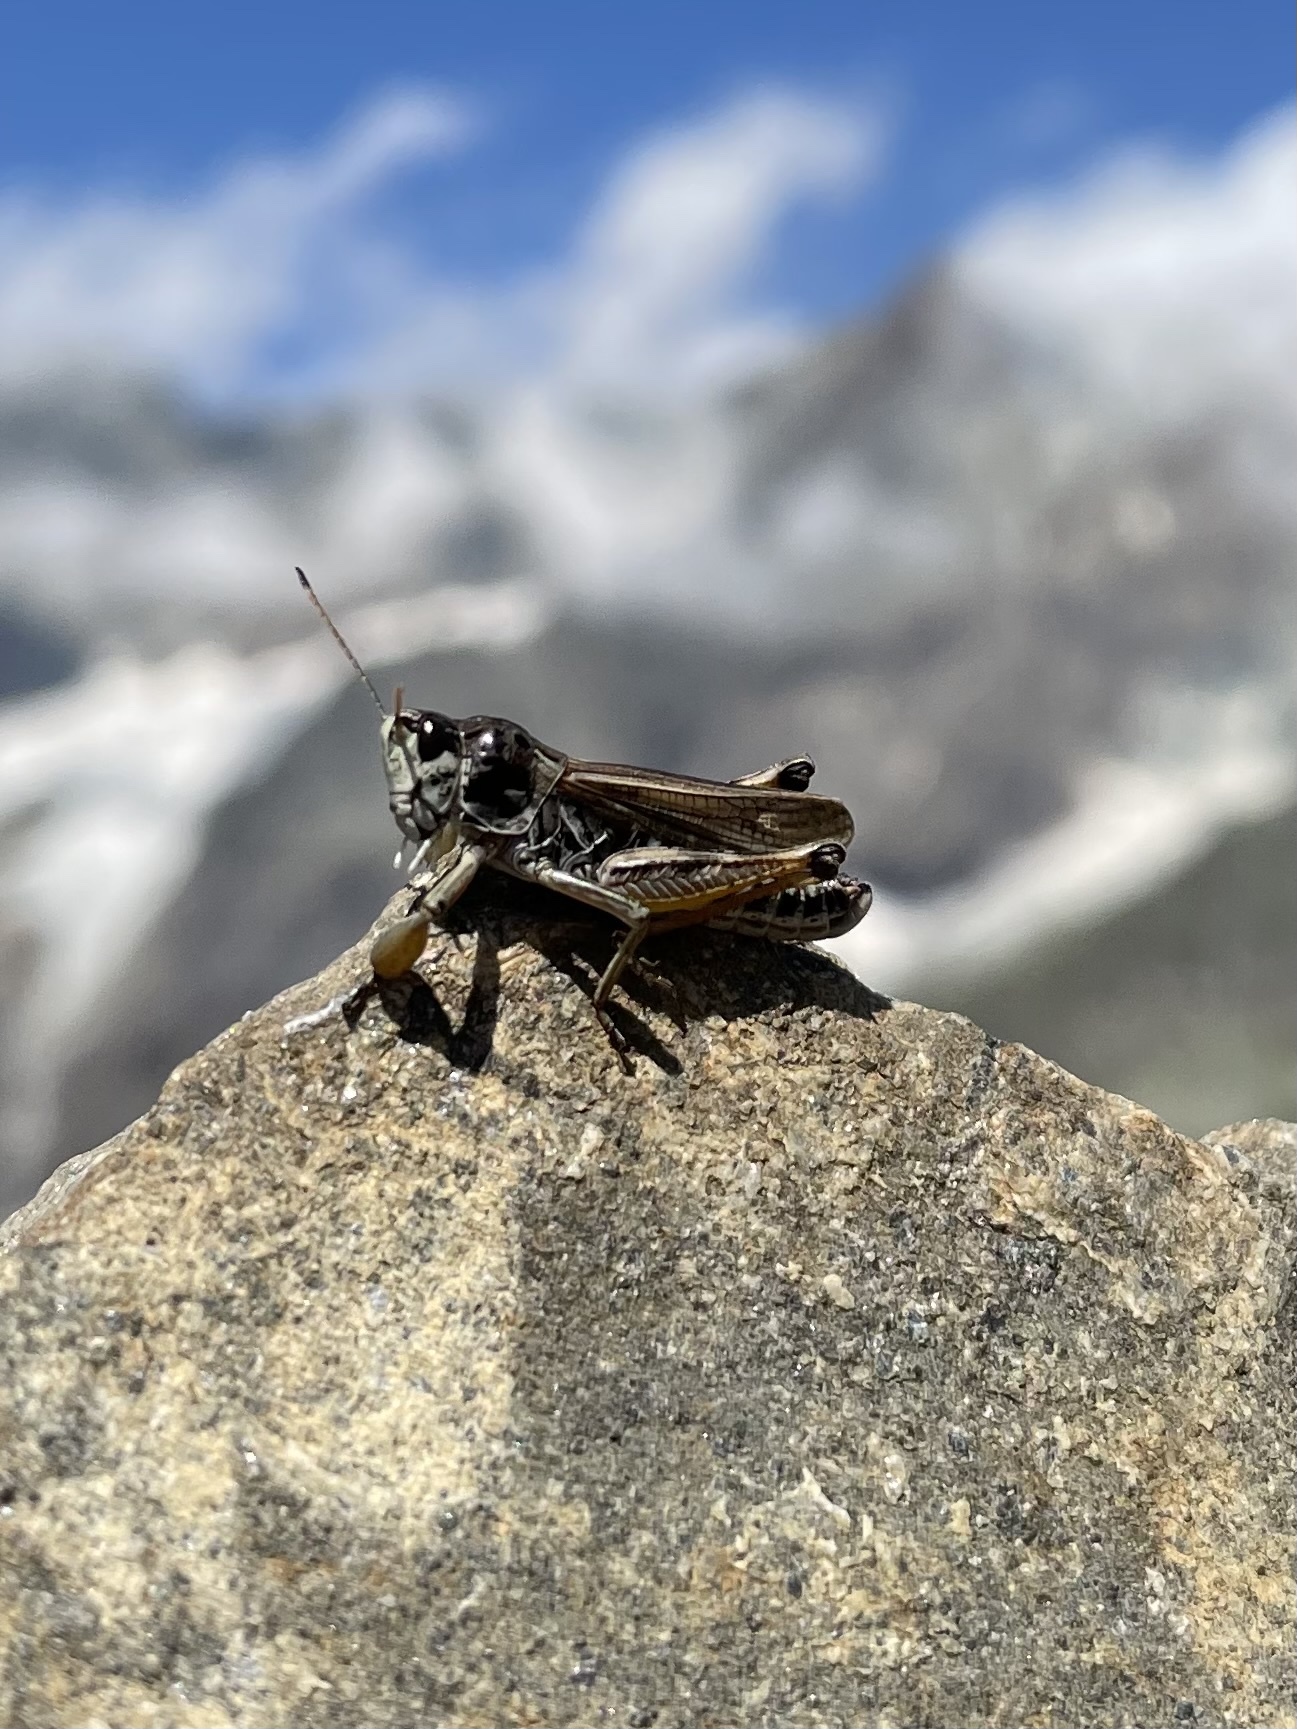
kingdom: Animalia
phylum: Arthropoda
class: Insecta
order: Orthoptera
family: Acrididae
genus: Gomphocerus
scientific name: Gomphocerus sibiricus
